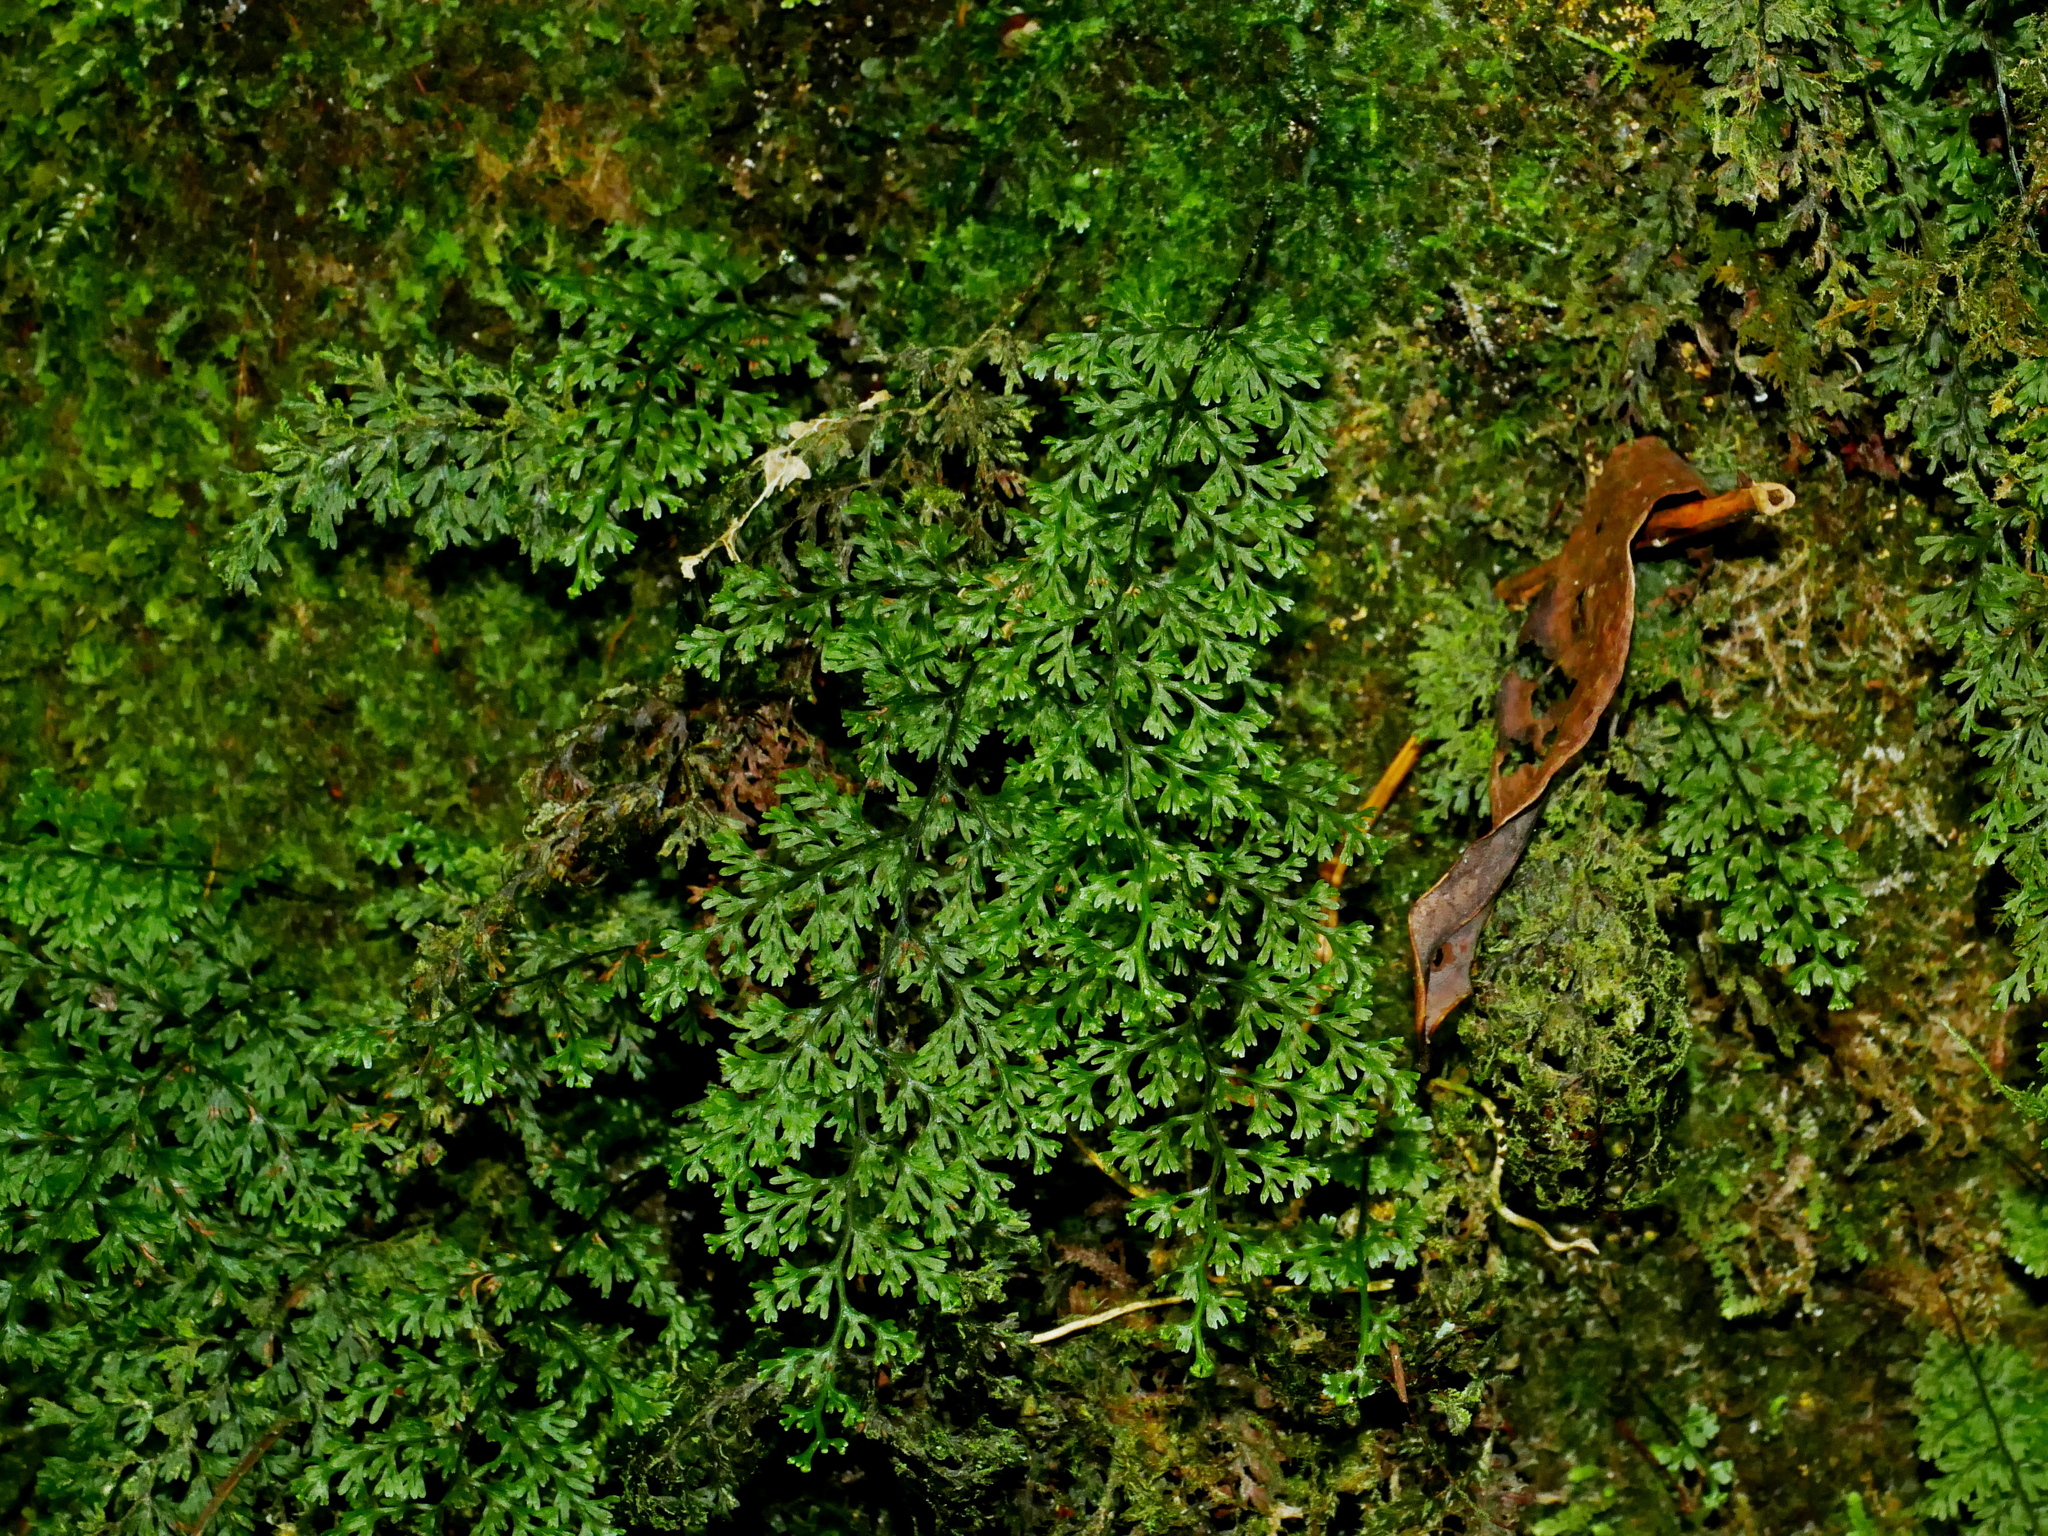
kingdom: Plantae
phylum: Tracheophyta
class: Polypodiopsida
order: Hymenophyllales
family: Hymenophyllaceae
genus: Hymenophyllum
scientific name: Hymenophyllum fujisanense
